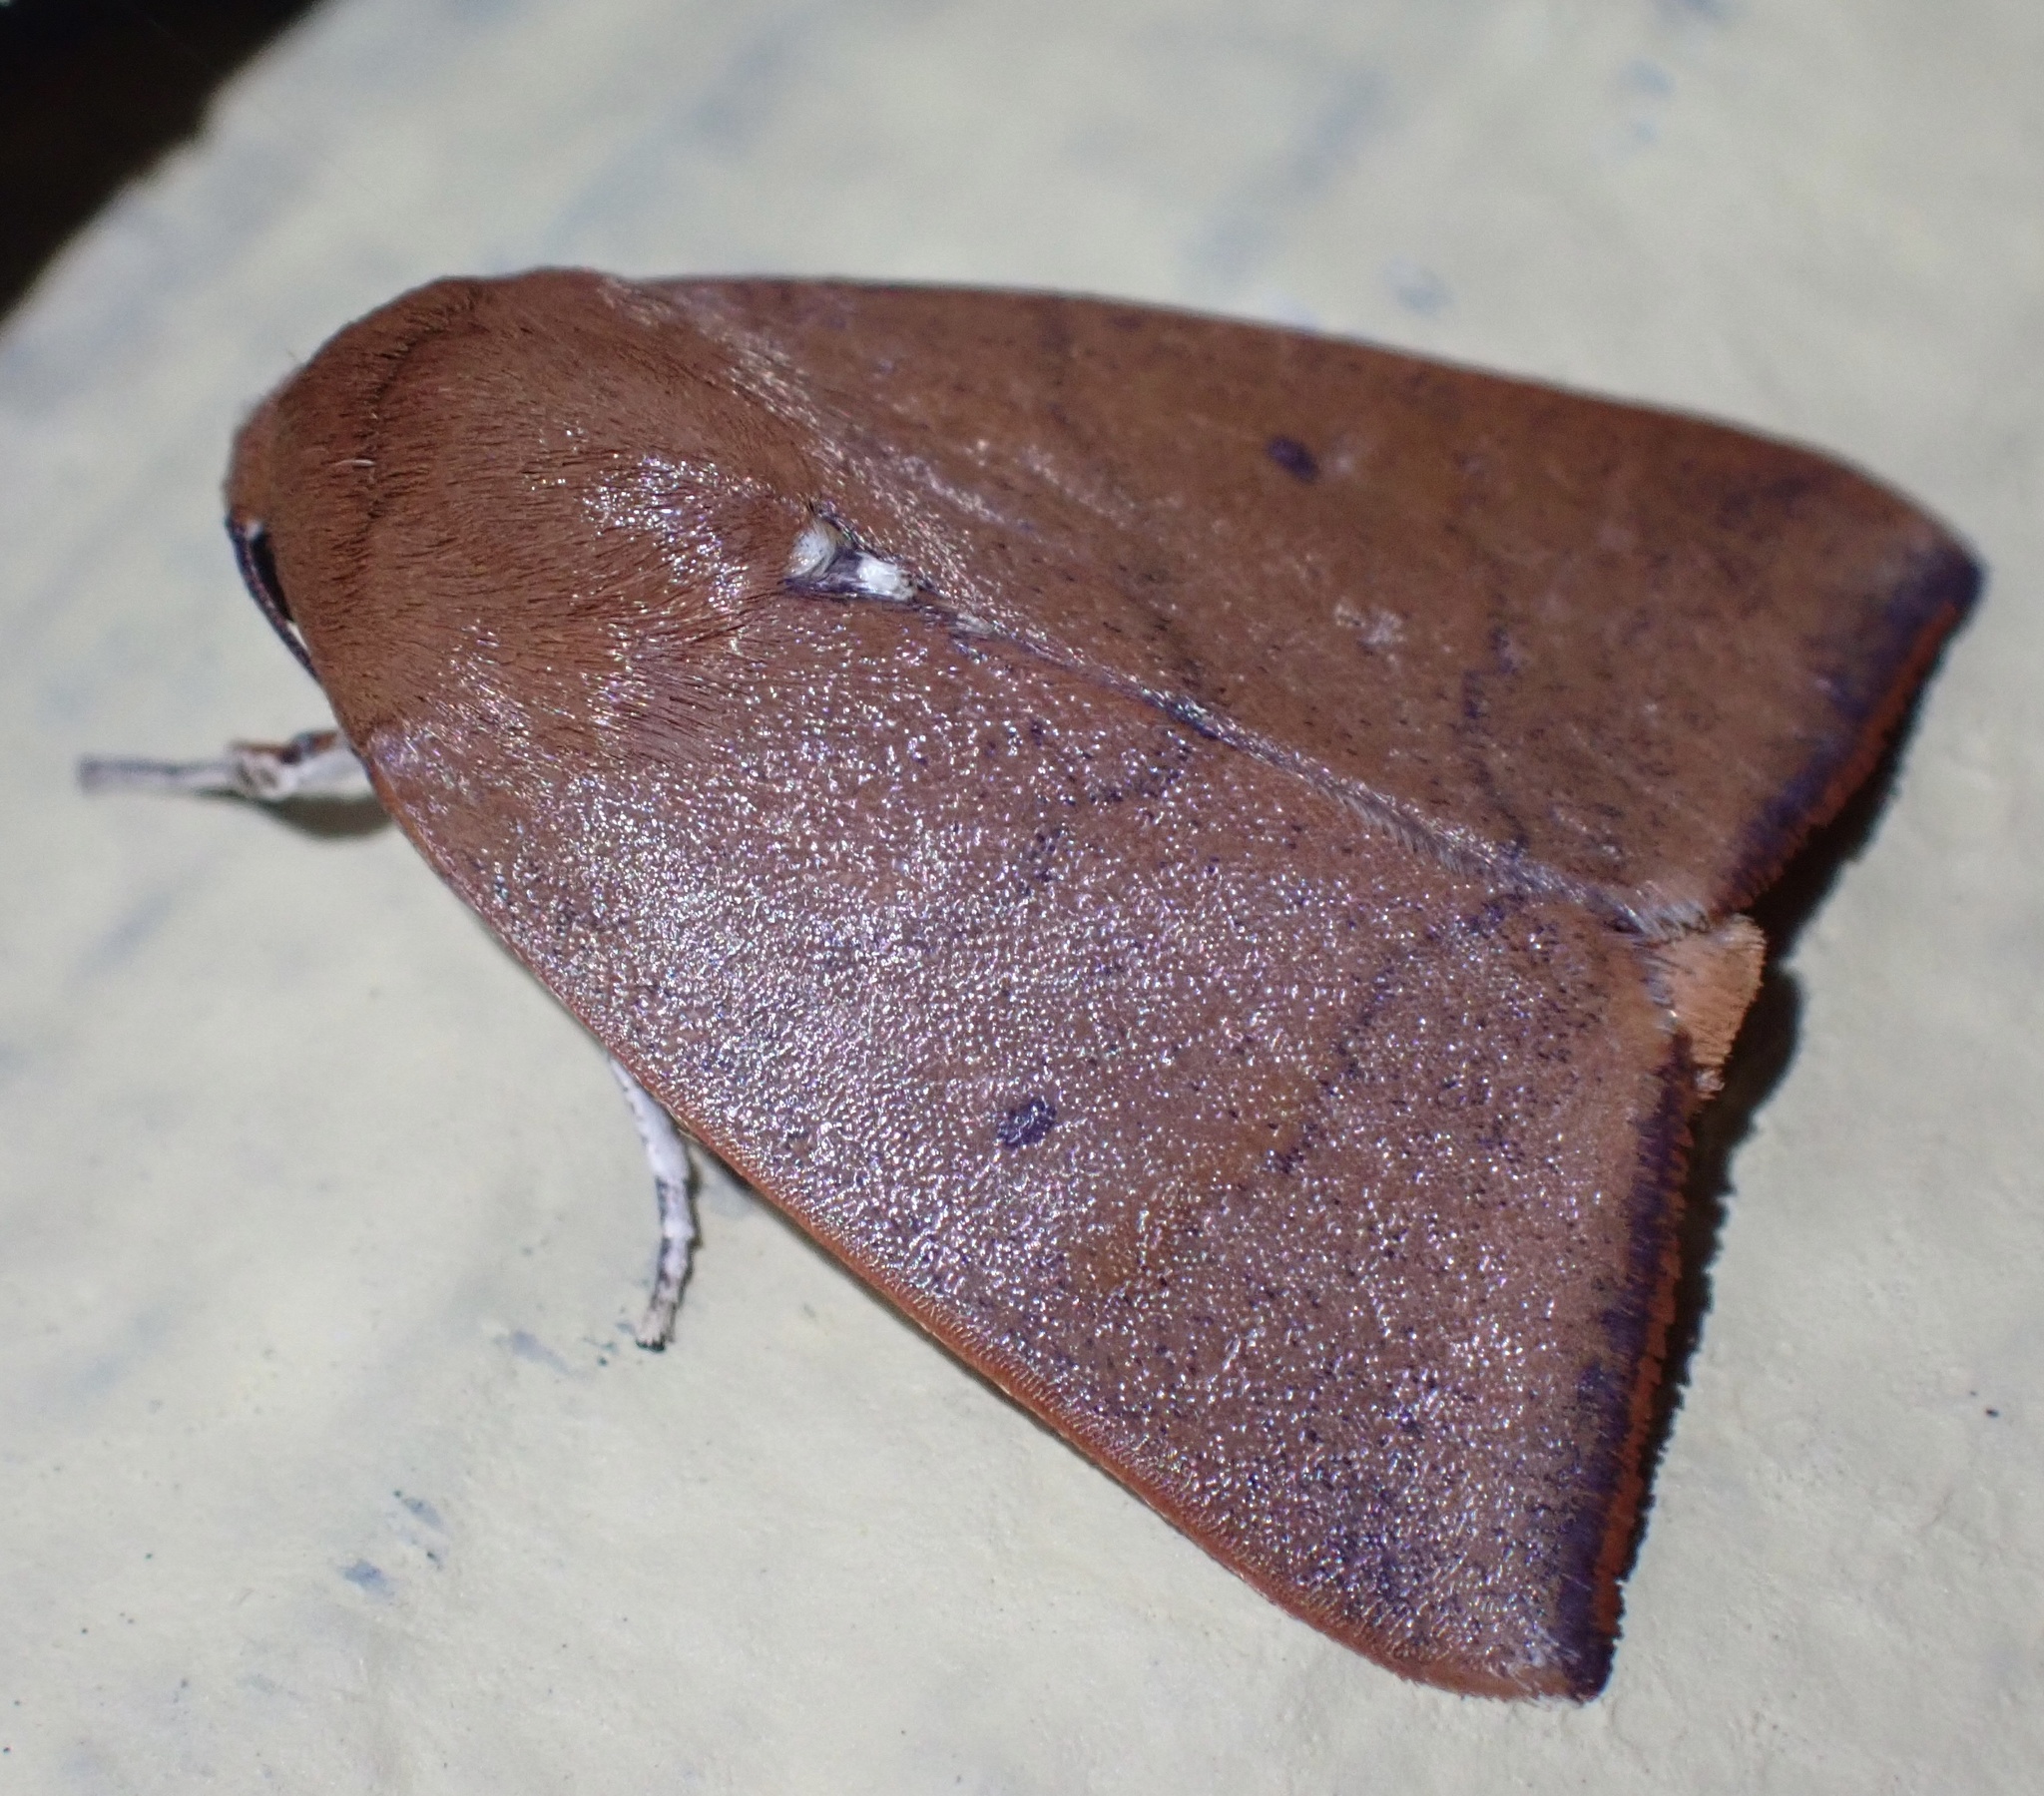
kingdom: Animalia
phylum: Arthropoda
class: Insecta
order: Lepidoptera
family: Nolidae
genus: Carea
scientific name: Carea unipunctata
